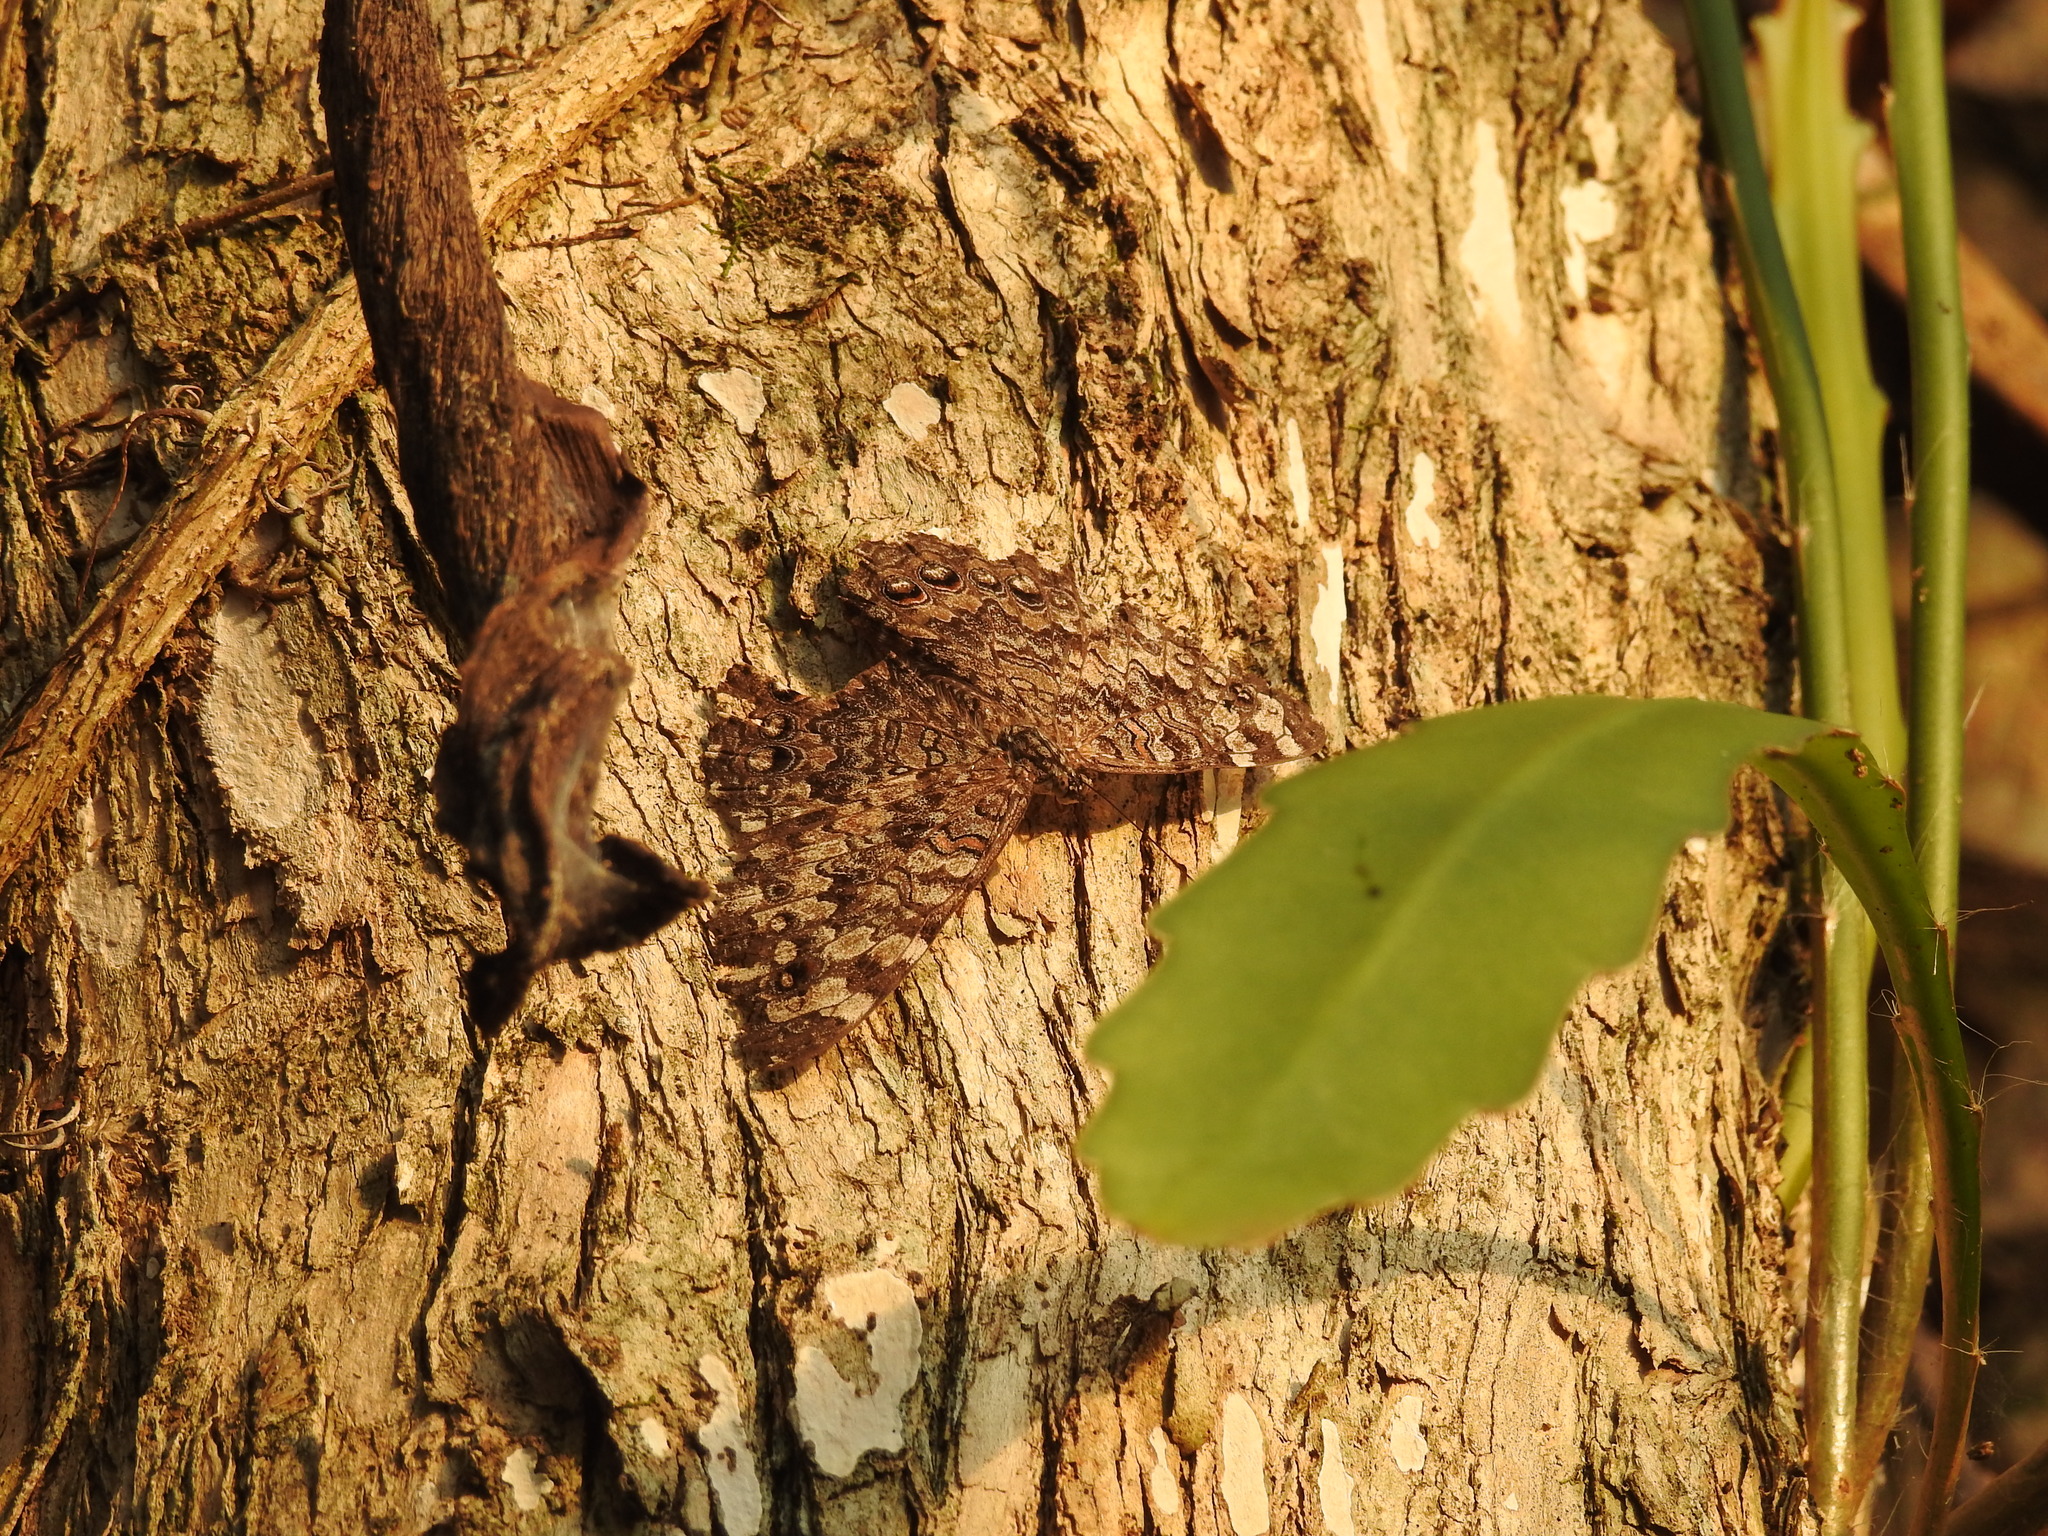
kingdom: Animalia
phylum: Arthropoda
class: Insecta
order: Lepidoptera
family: Nymphalidae
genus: Hamadryas
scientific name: Hamadryas februa
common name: Gray cracker
